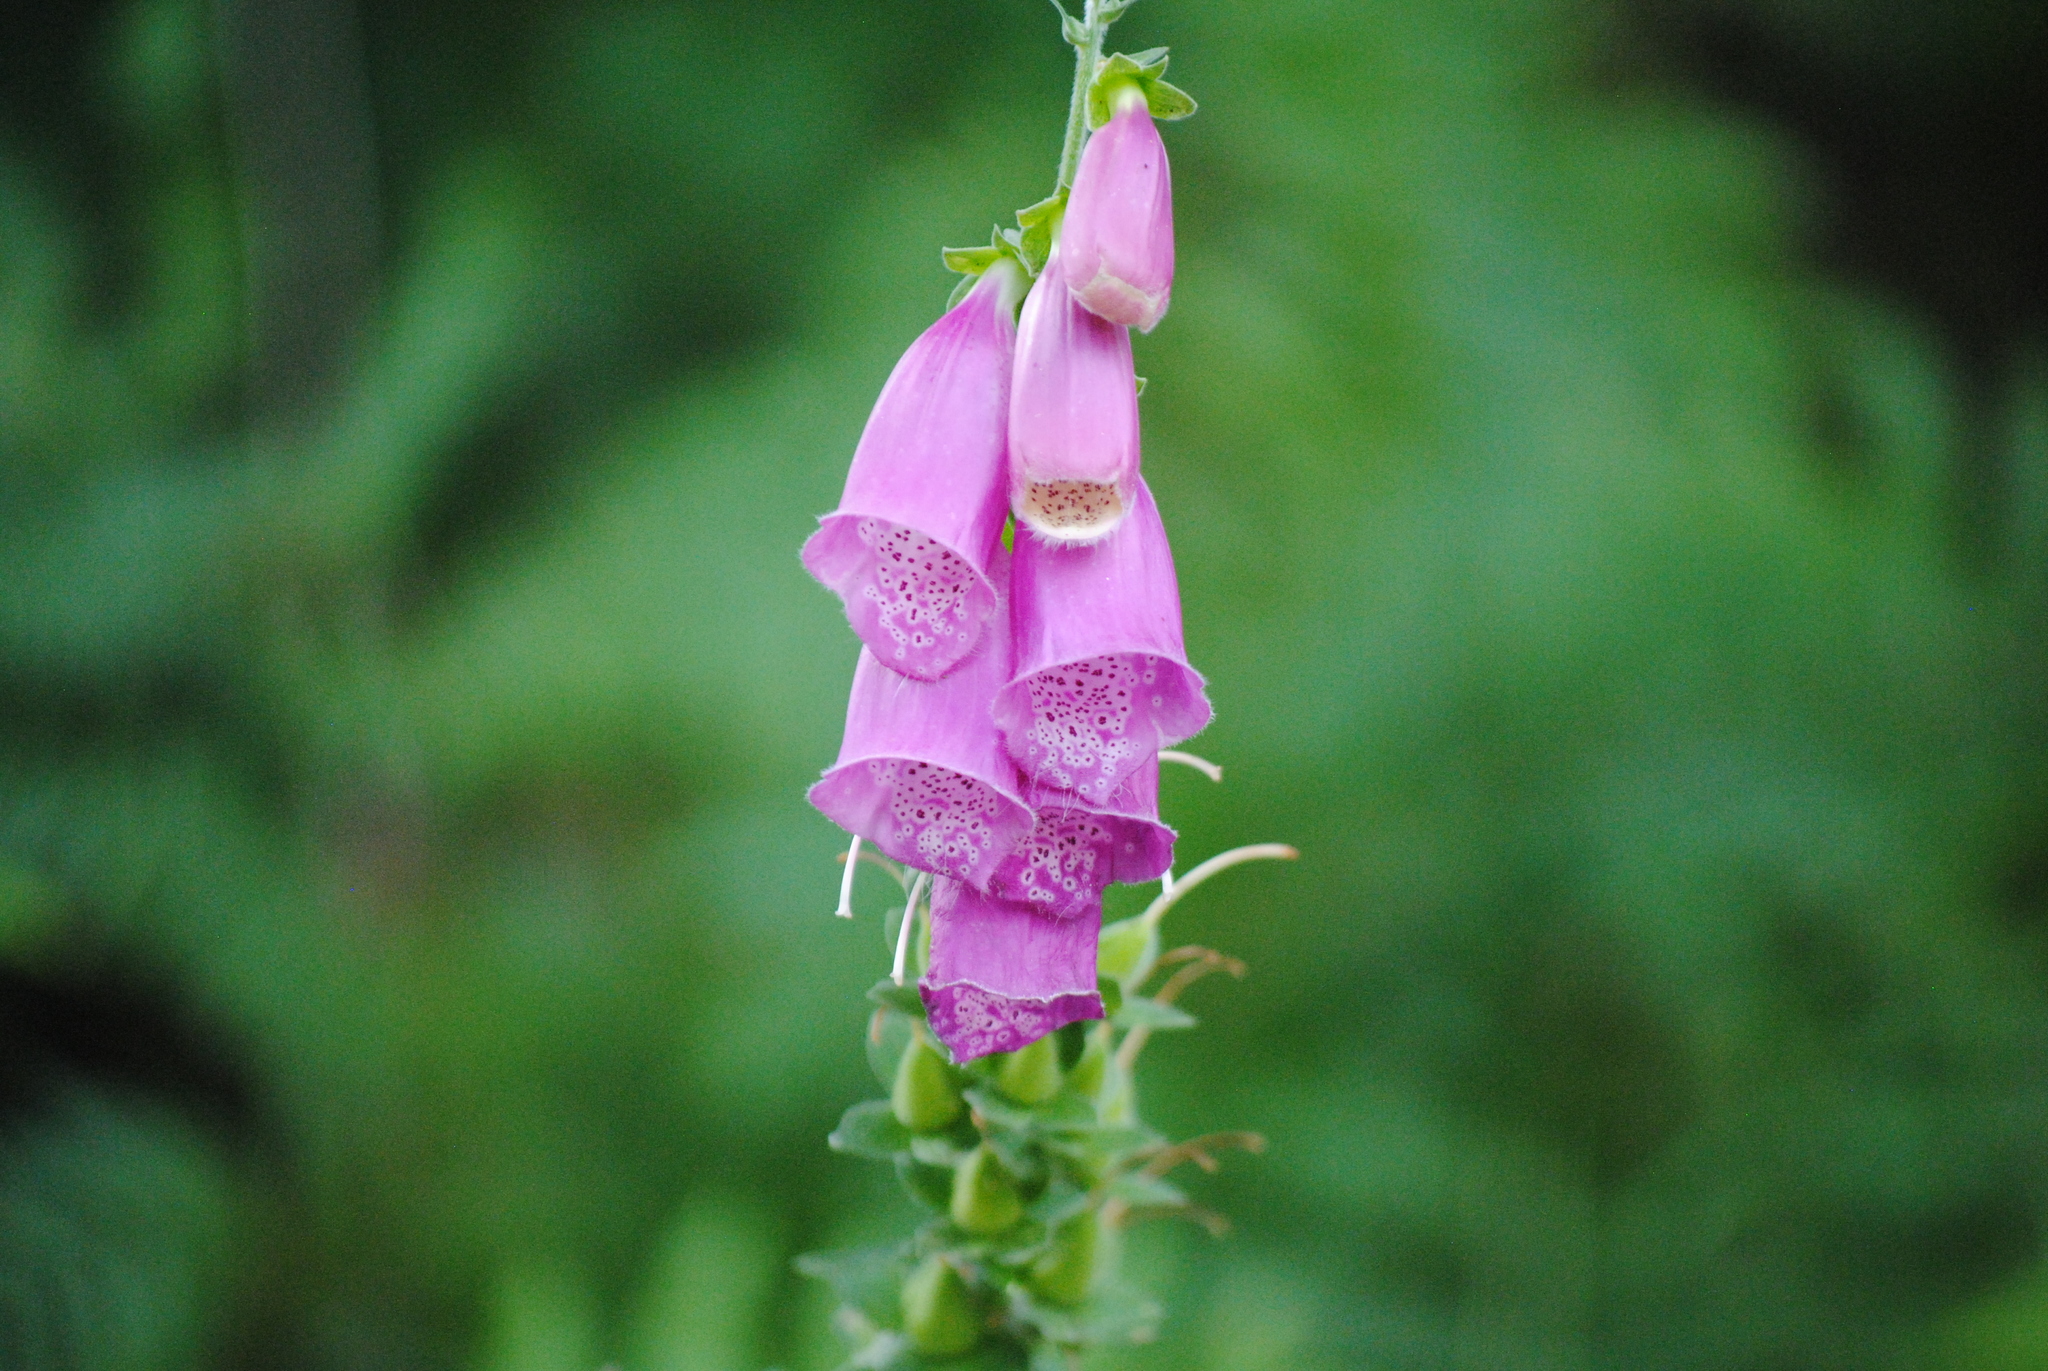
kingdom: Plantae
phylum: Tracheophyta
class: Magnoliopsida
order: Lamiales
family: Plantaginaceae
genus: Digitalis
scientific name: Digitalis purpurea
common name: Foxglove
